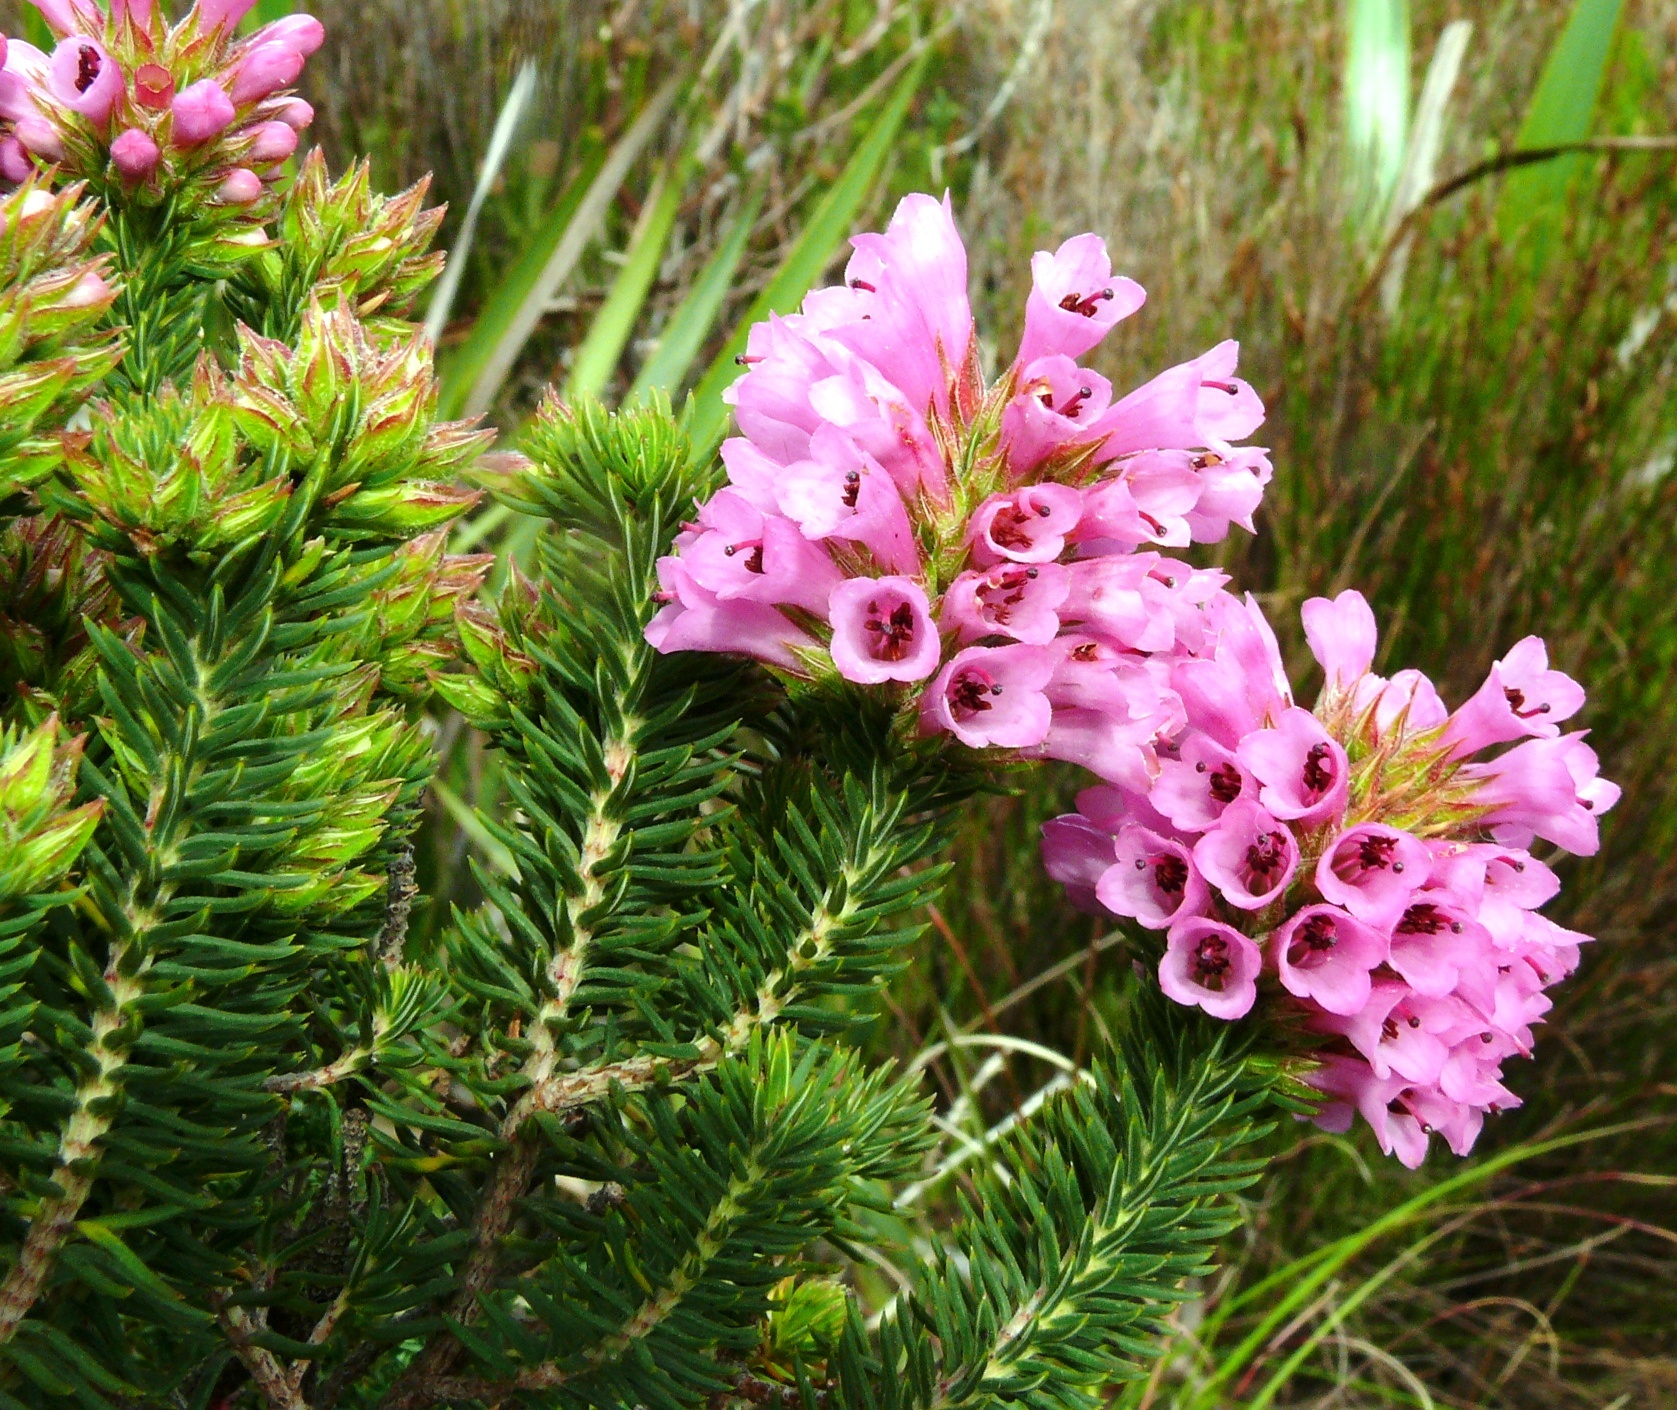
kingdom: Plantae
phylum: Tracheophyta
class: Magnoliopsida
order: Ericales
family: Ericaceae
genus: Erica
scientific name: Erica abietina
